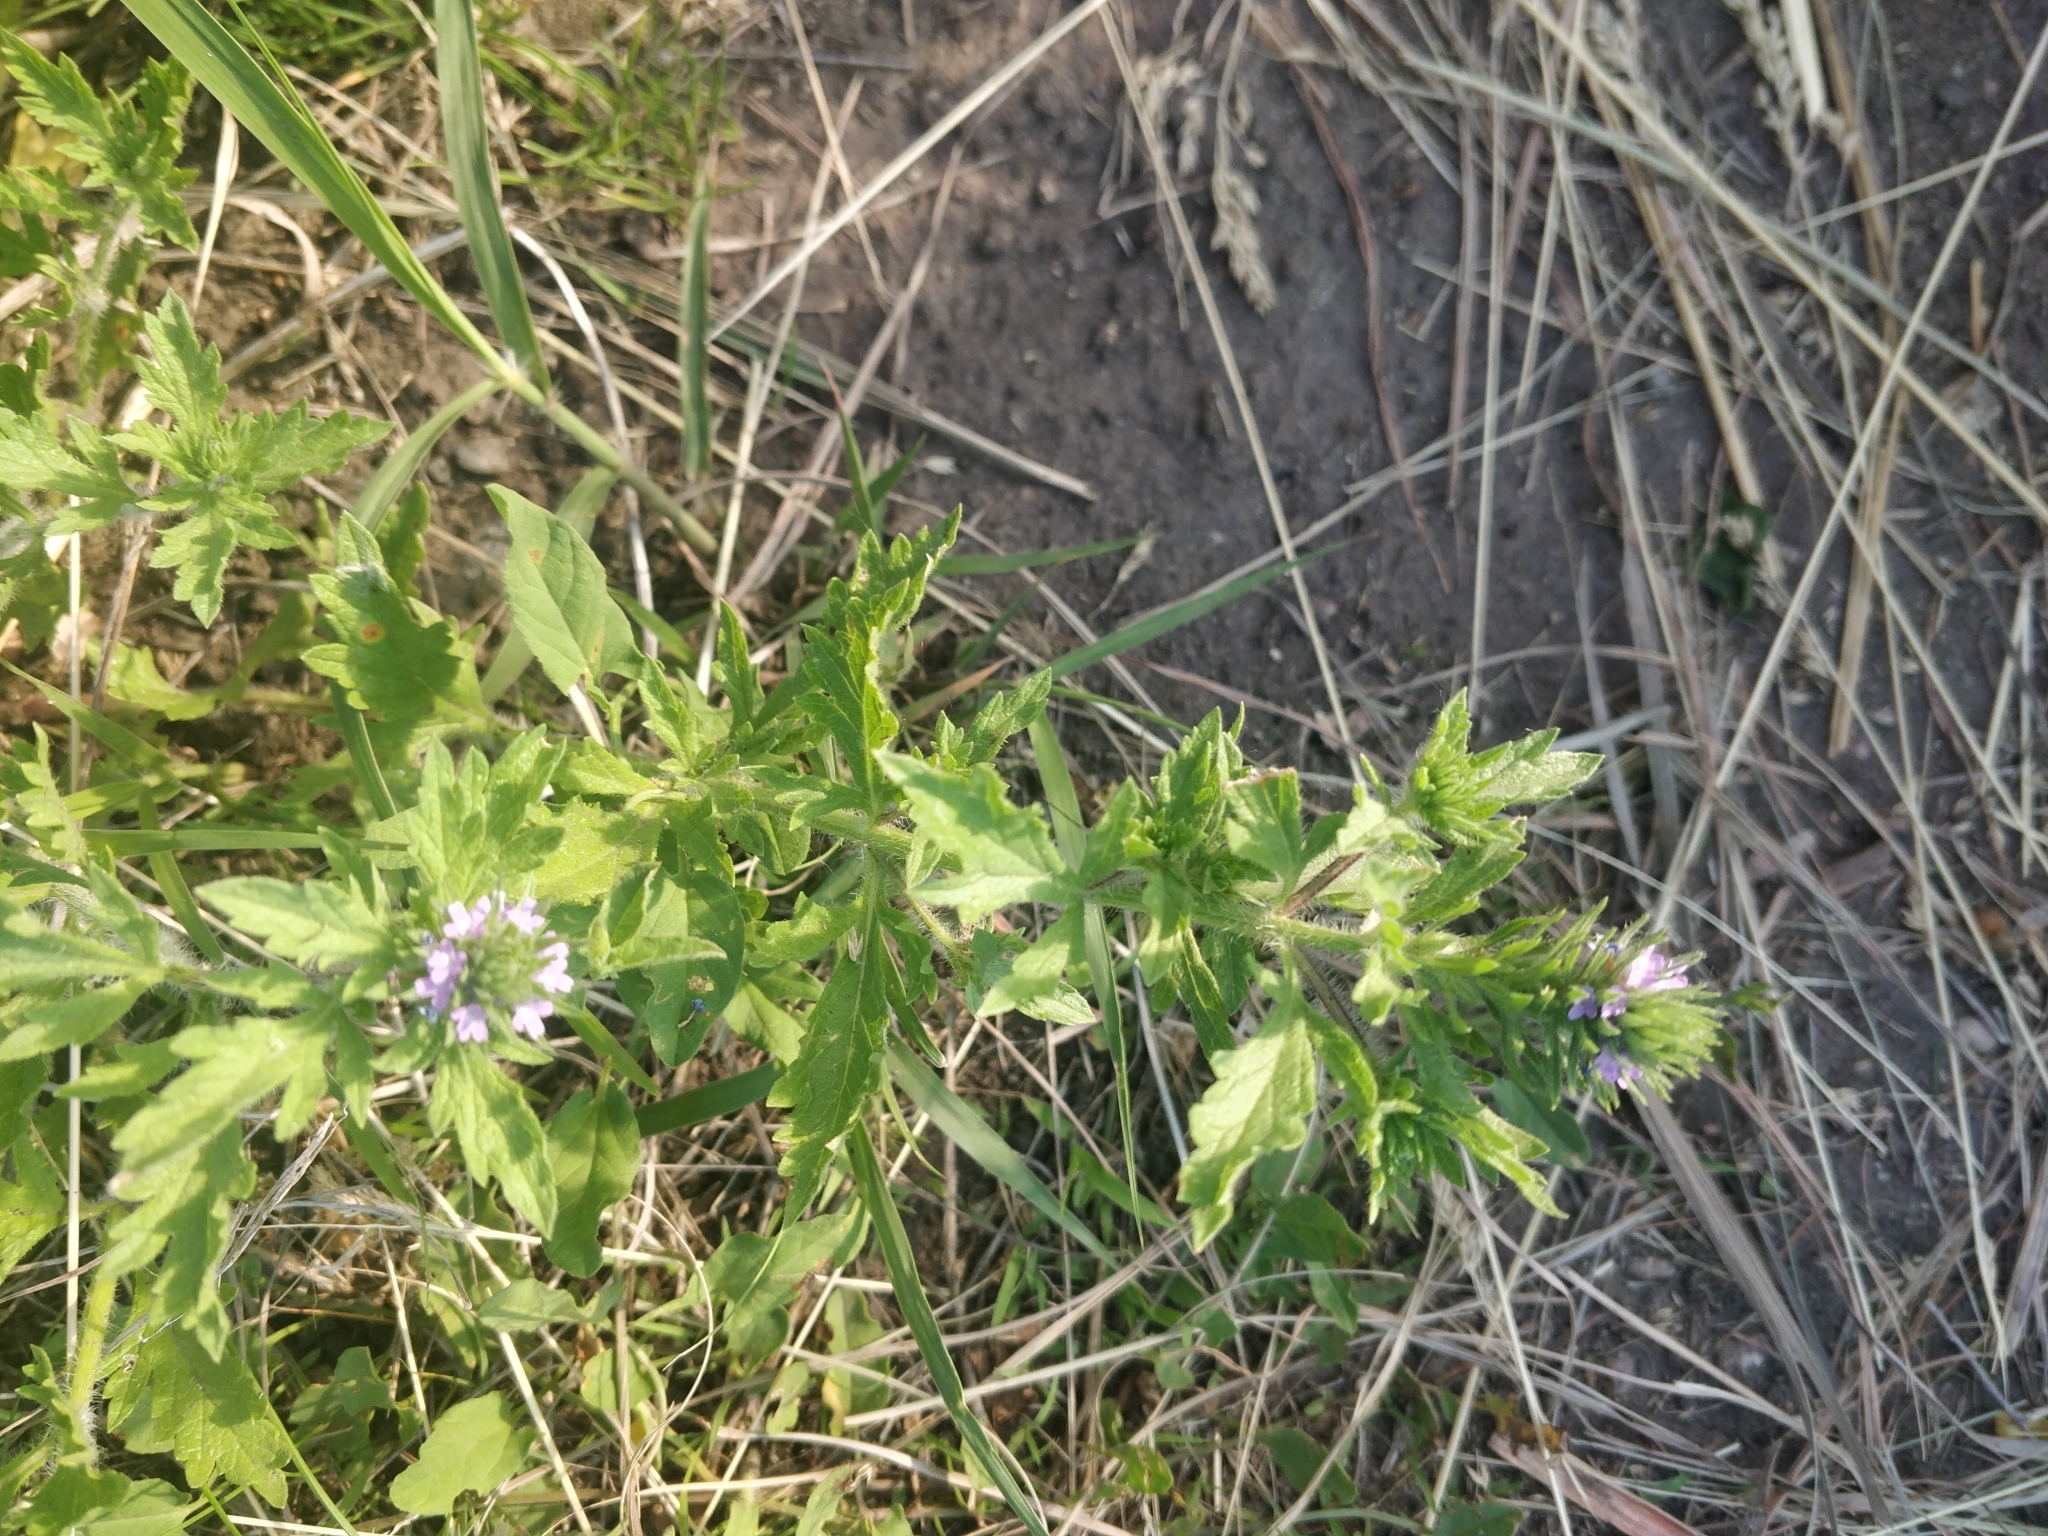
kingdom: Plantae
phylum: Tracheophyta
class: Magnoliopsida
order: Lamiales
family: Verbenaceae
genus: Verbena
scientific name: Verbena bracteata
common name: Bracted vervain
